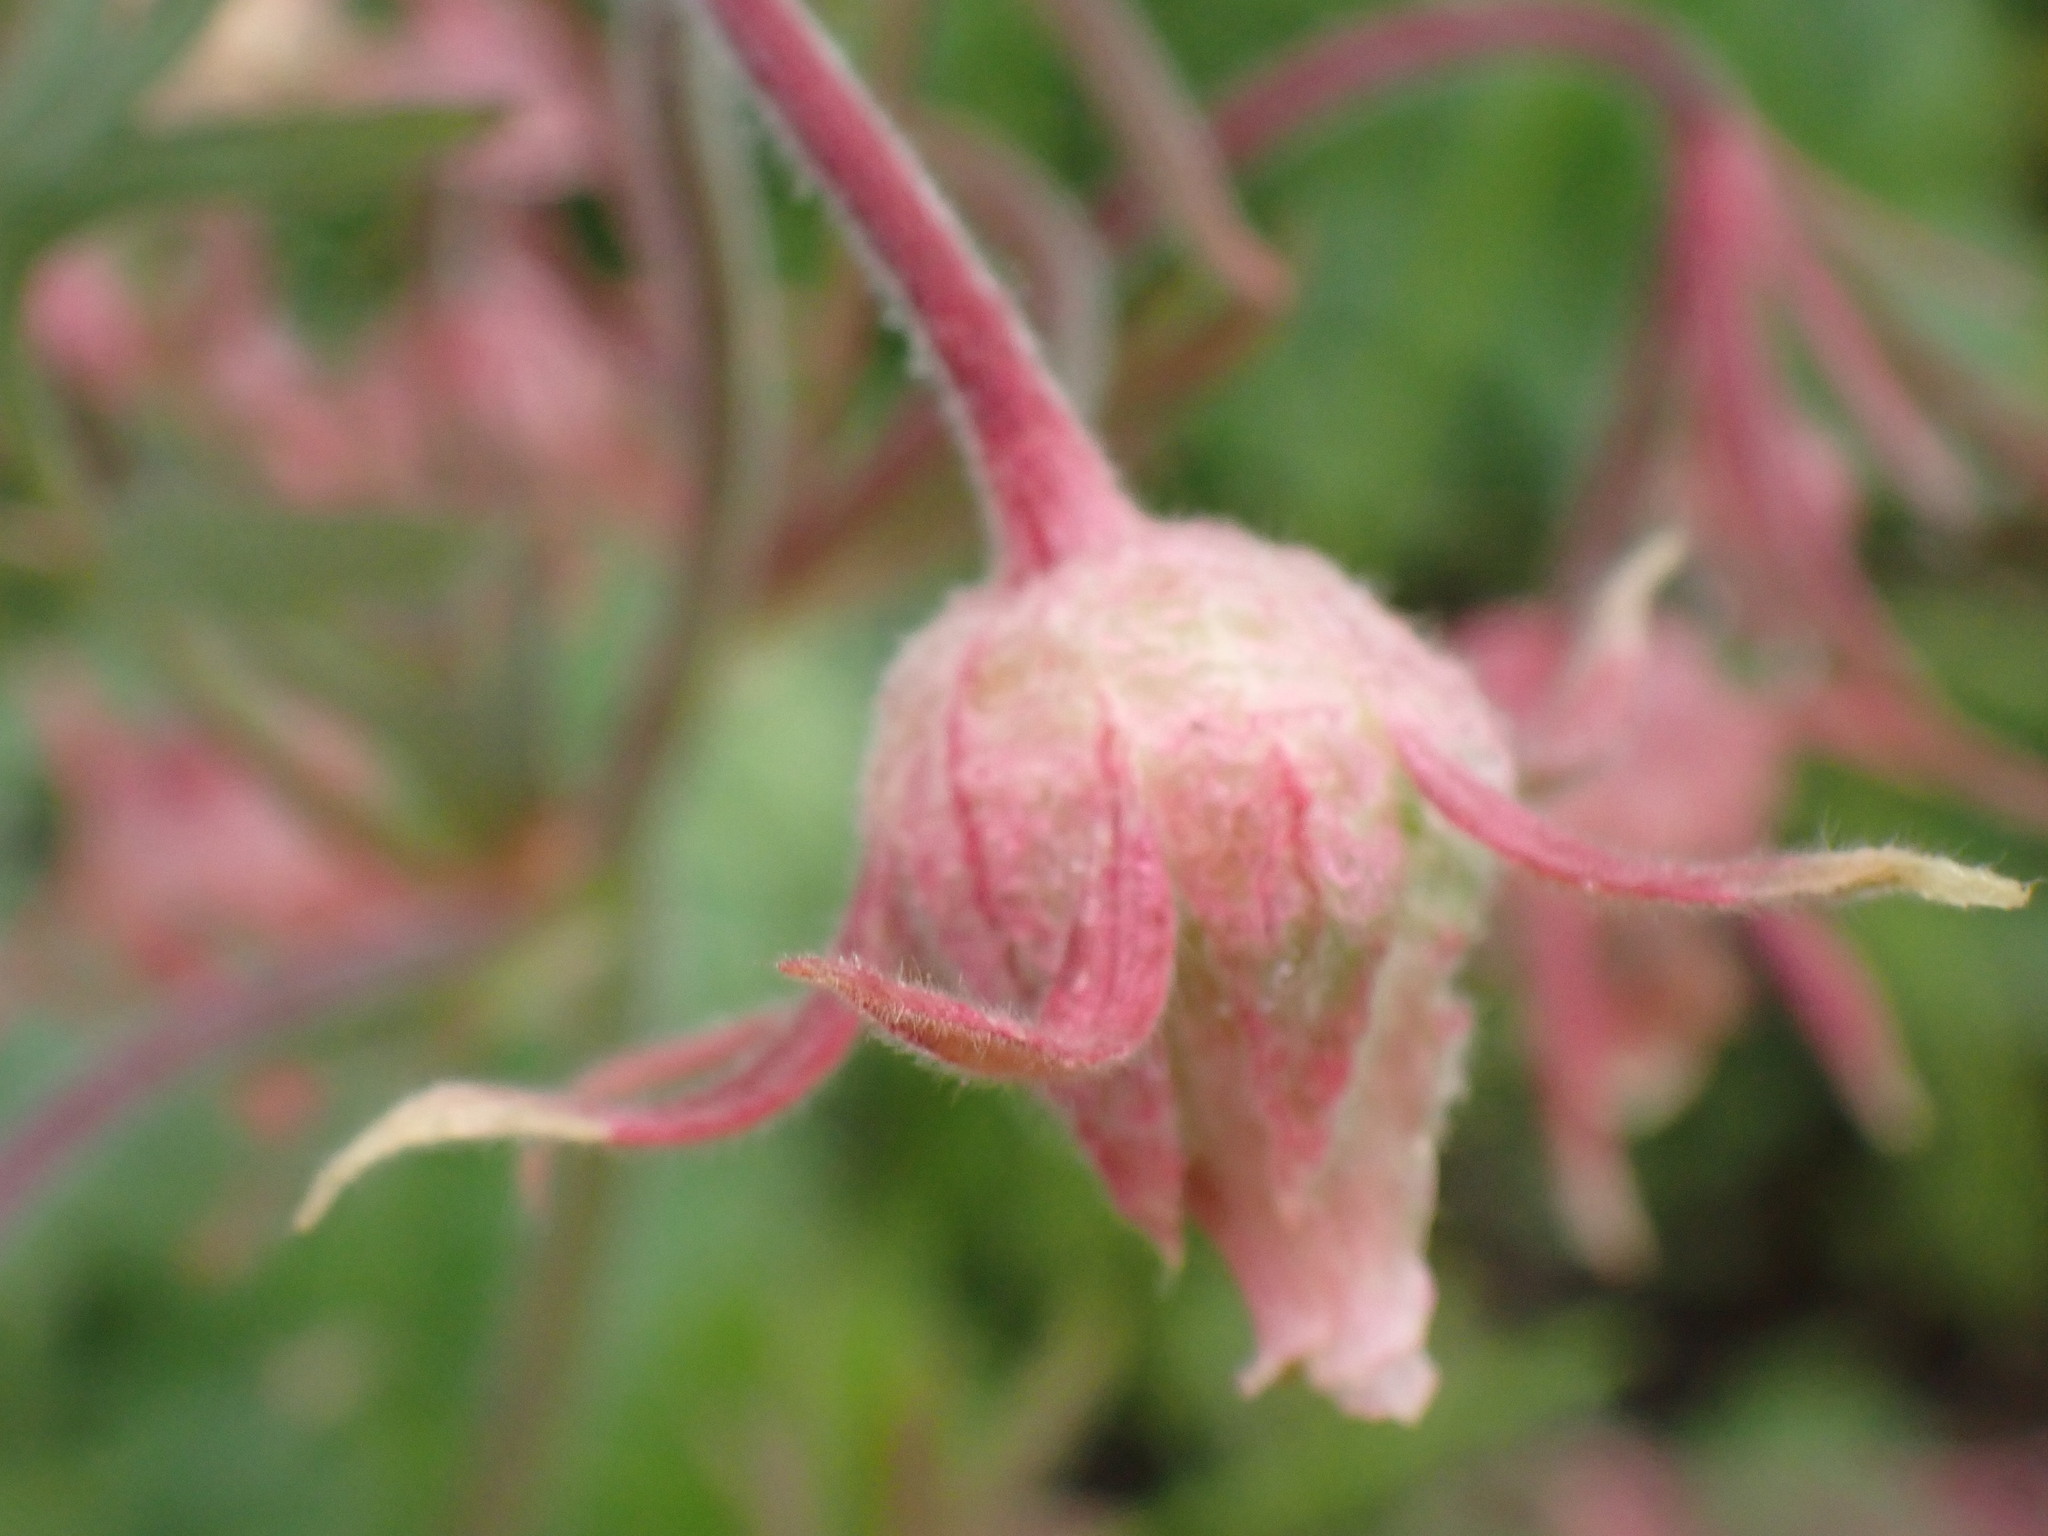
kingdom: Plantae
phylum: Tracheophyta
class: Magnoliopsida
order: Rosales
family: Rosaceae
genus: Geum
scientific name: Geum triflorum
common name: Old man's whiskers
